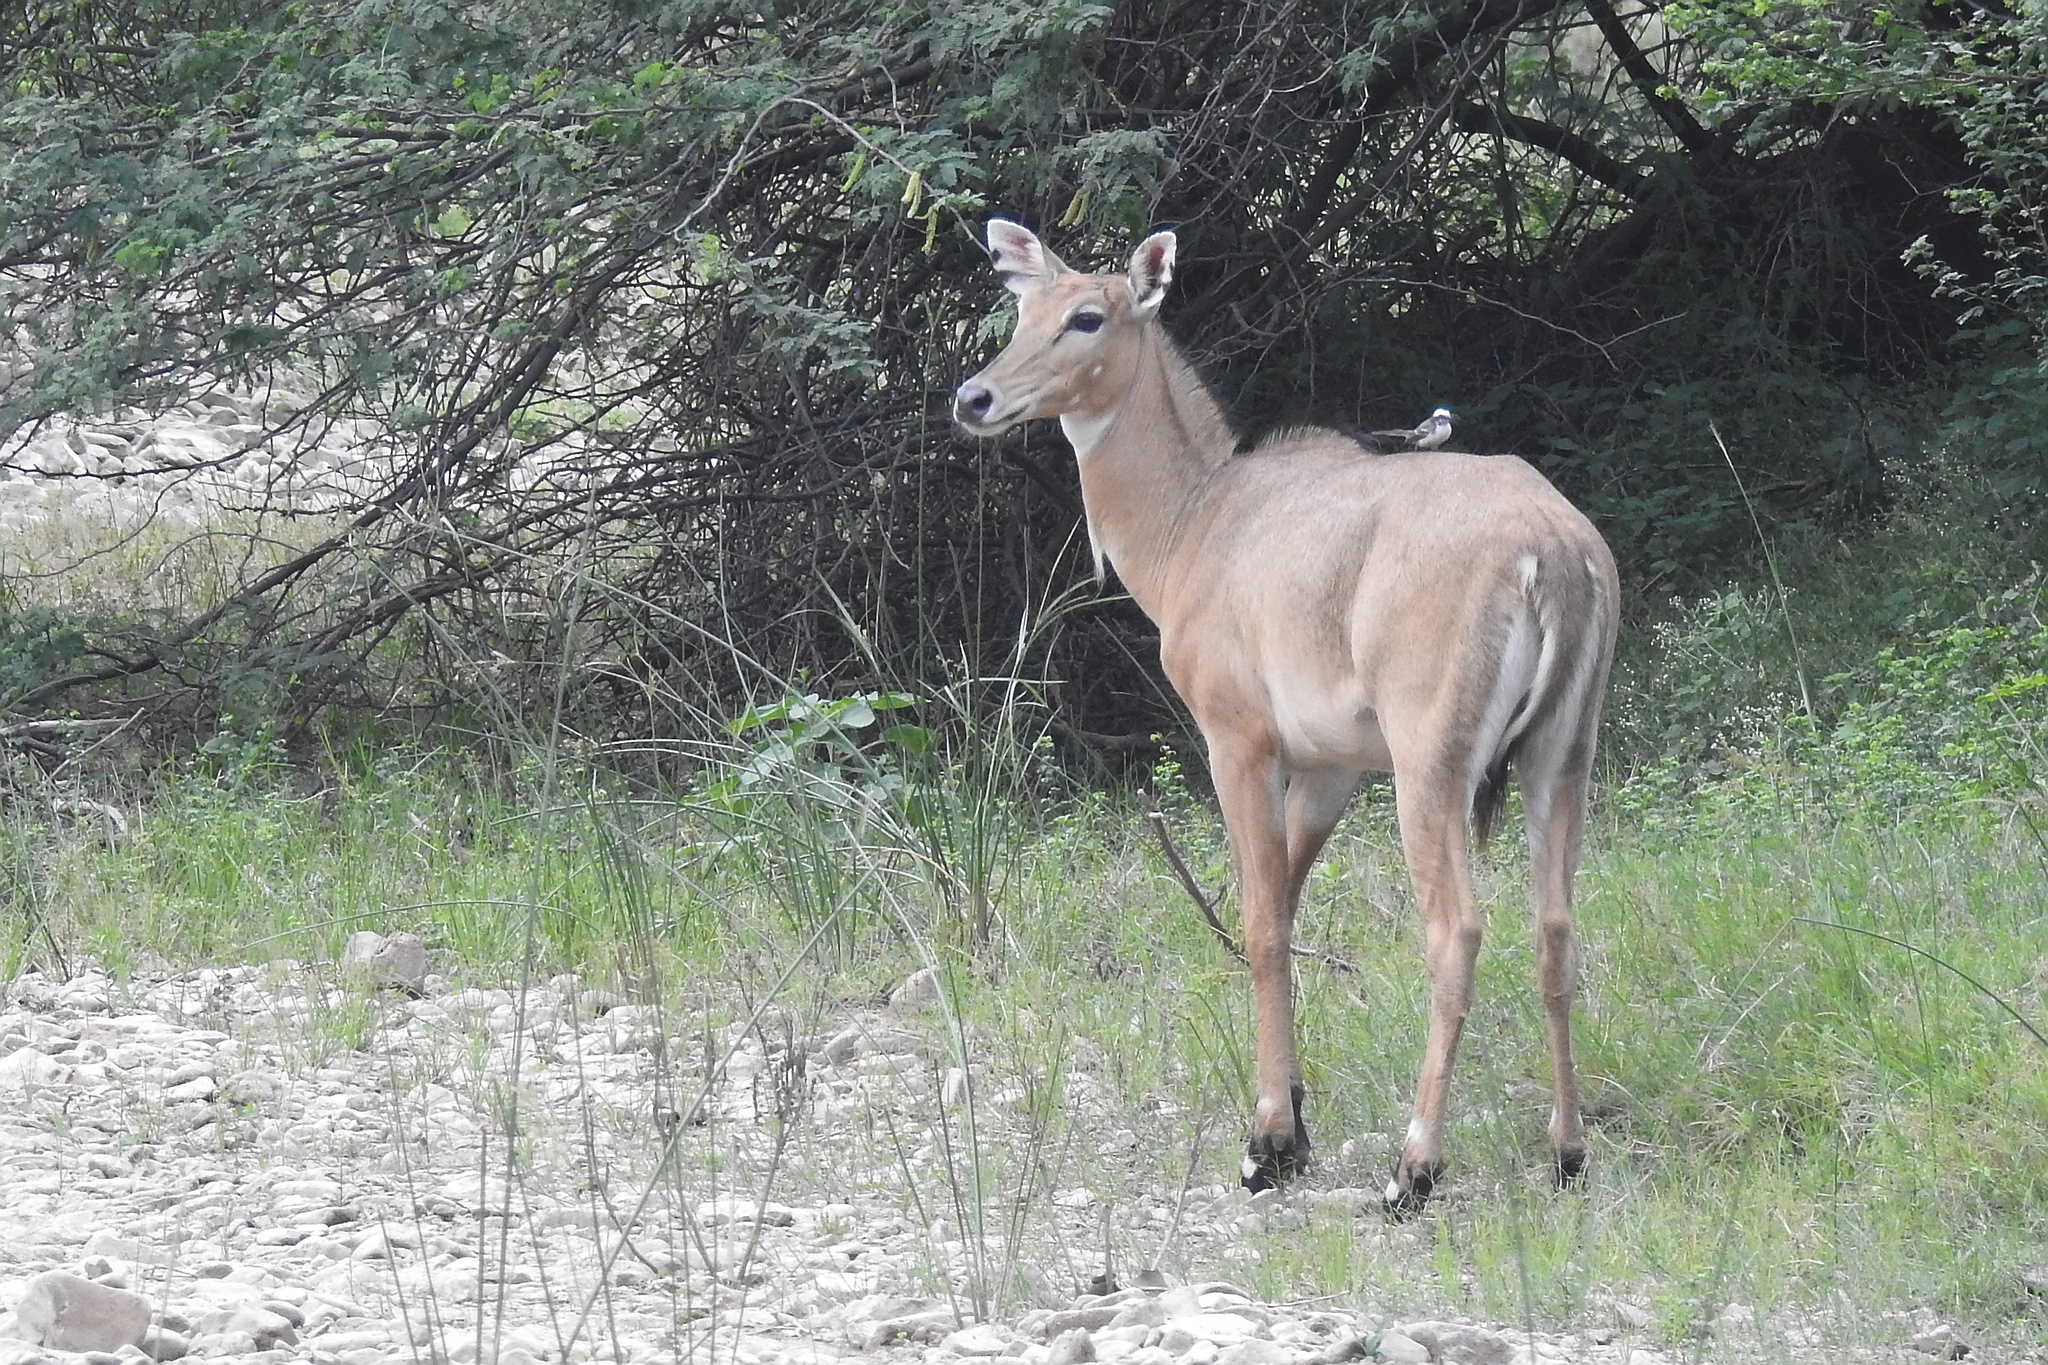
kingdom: Animalia
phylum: Chordata
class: Mammalia
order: Artiodactyla
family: Bovidae
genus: Boselaphus
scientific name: Boselaphus tragocamelus
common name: Nilgai
